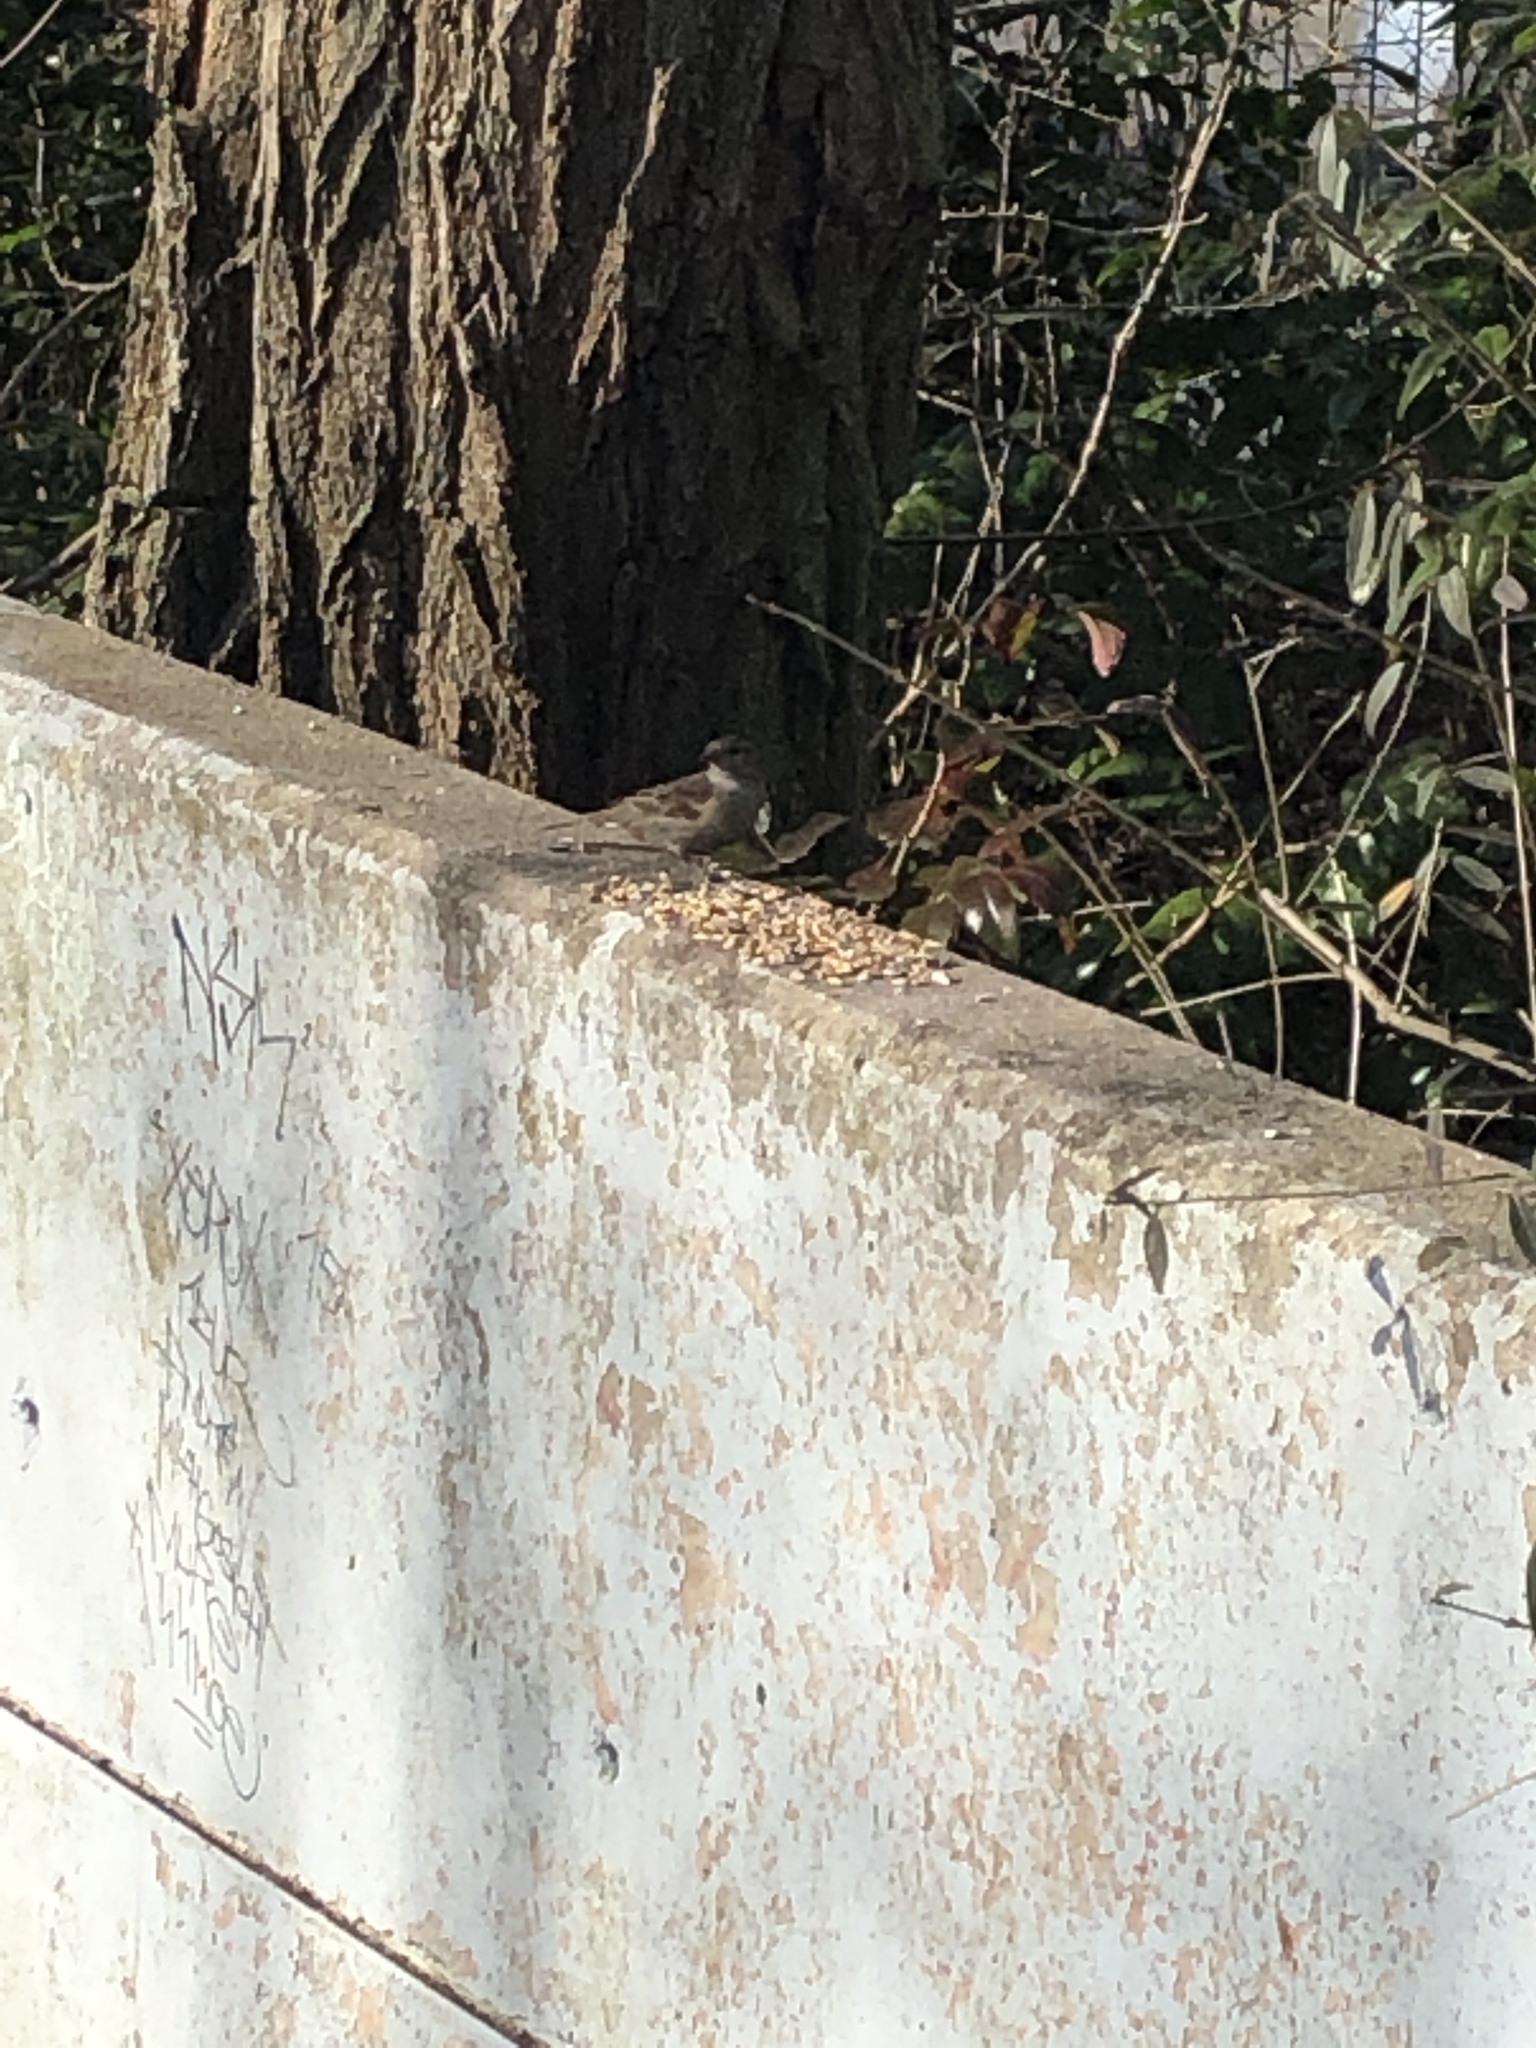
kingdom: Animalia
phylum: Chordata
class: Aves
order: Passeriformes
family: Passeridae
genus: Passer
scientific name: Passer domesticus
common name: House sparrow
